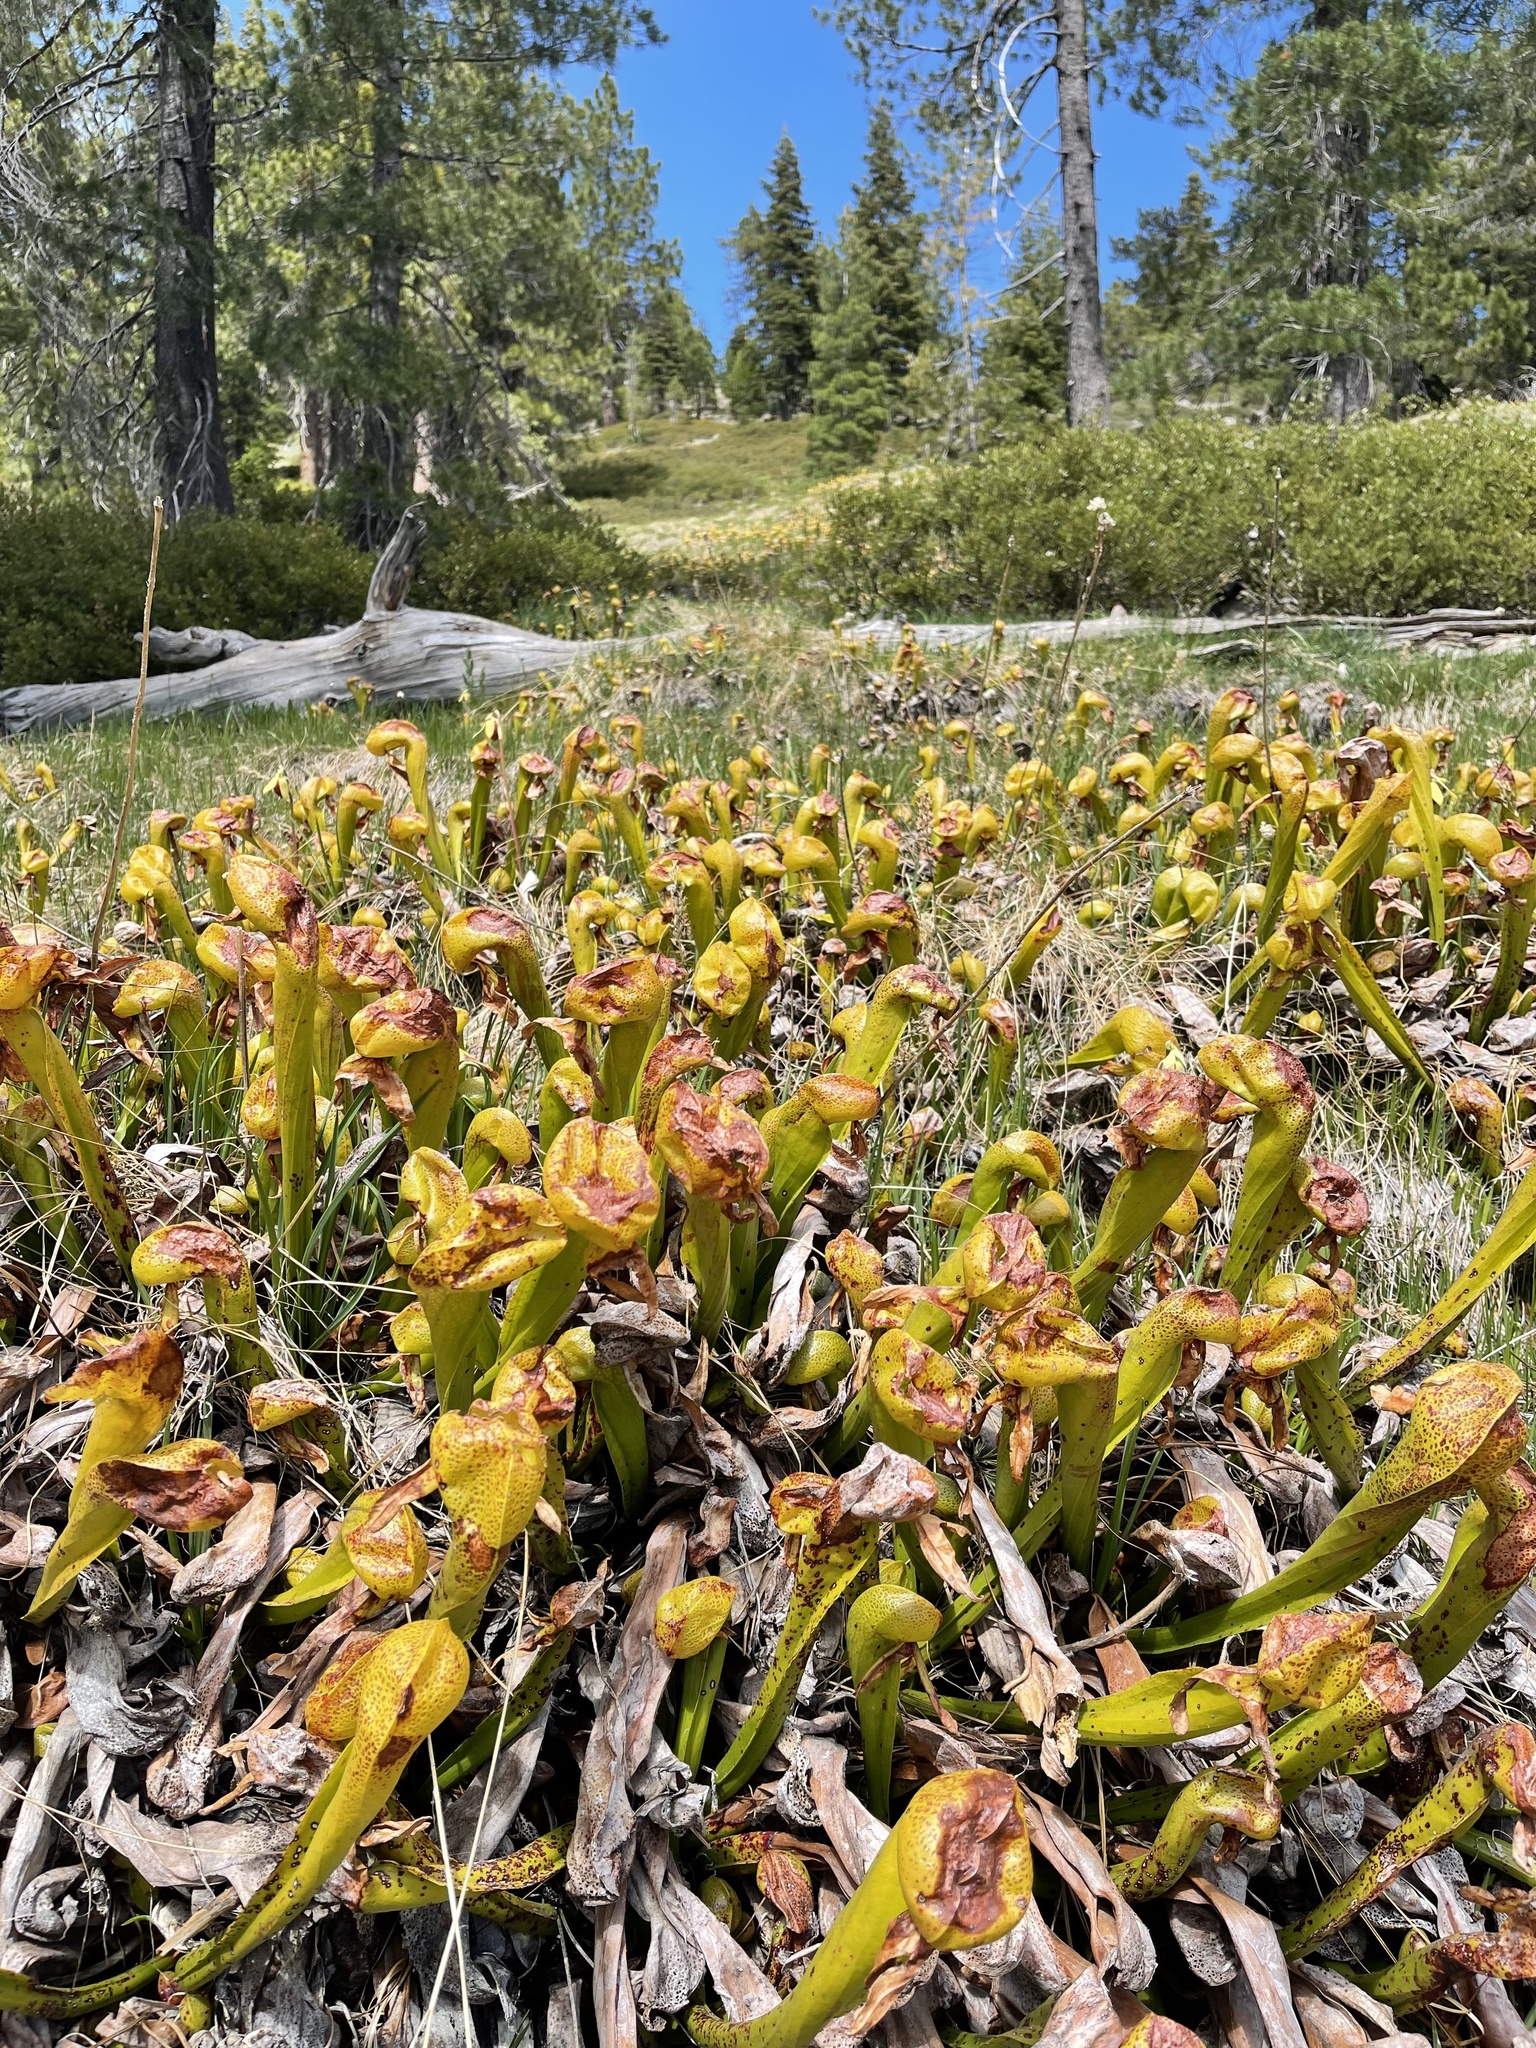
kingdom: Plantae
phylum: Tracheophyta
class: Magnoliopsida
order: Ericales
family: Sarraceniaceae
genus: Darlingtonia
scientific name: Darlingtonia californica
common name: California pitcher plant
